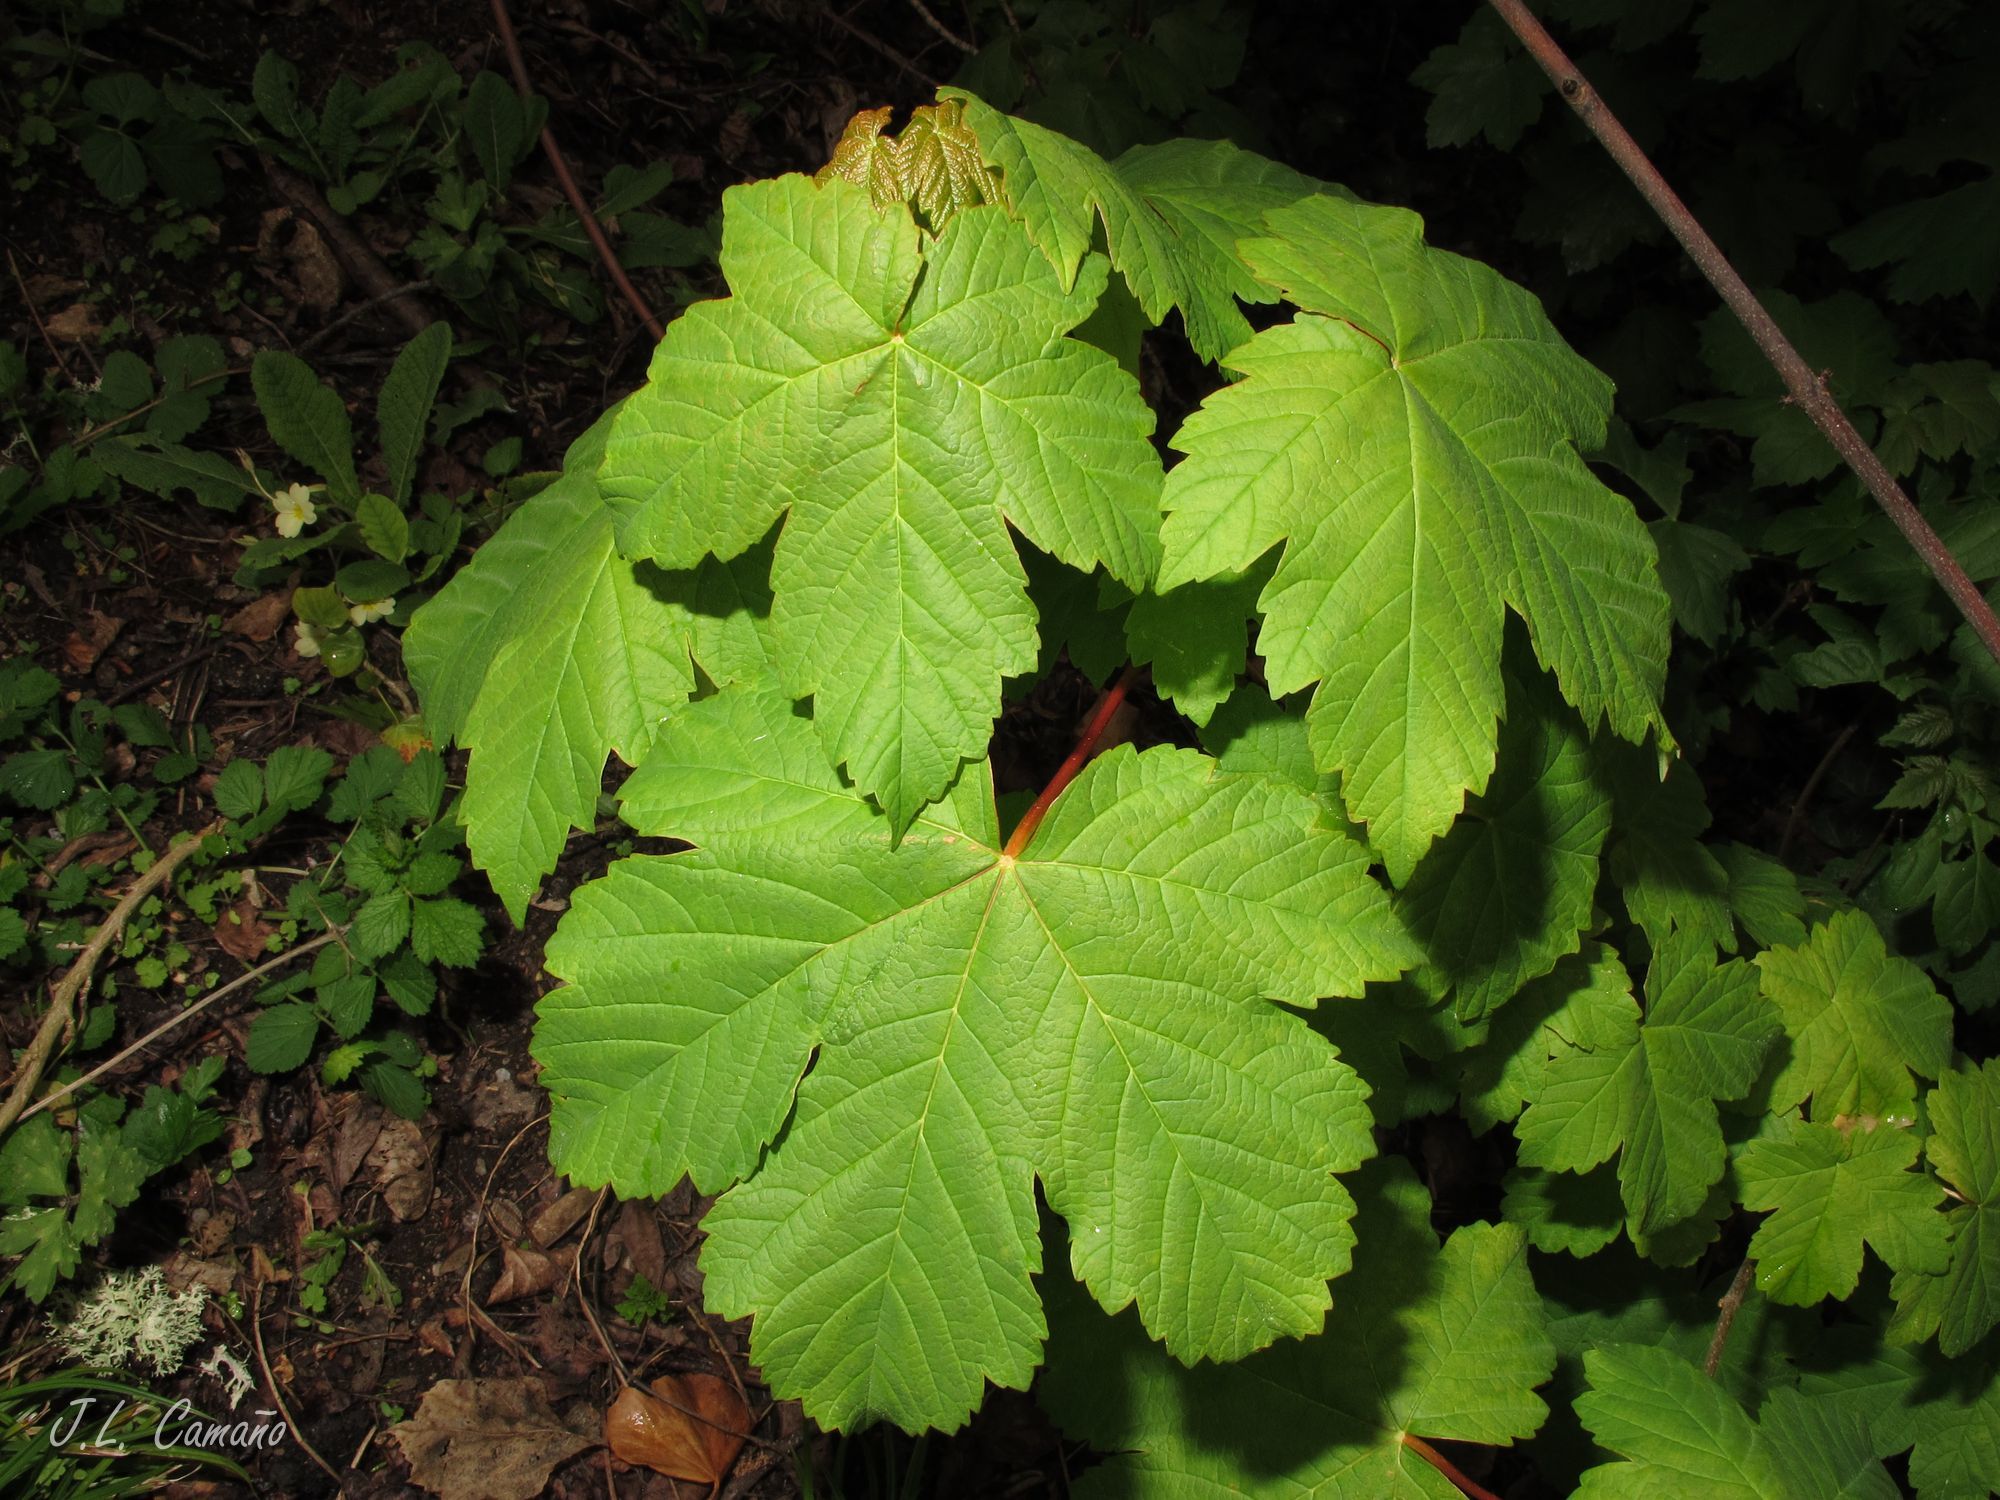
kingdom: Plantae
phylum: Tracheophyta
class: Magnoliopsida
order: Sapindales
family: Sapindaceae
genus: Acer
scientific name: Acer pseudoplatanus
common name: Sycamore
